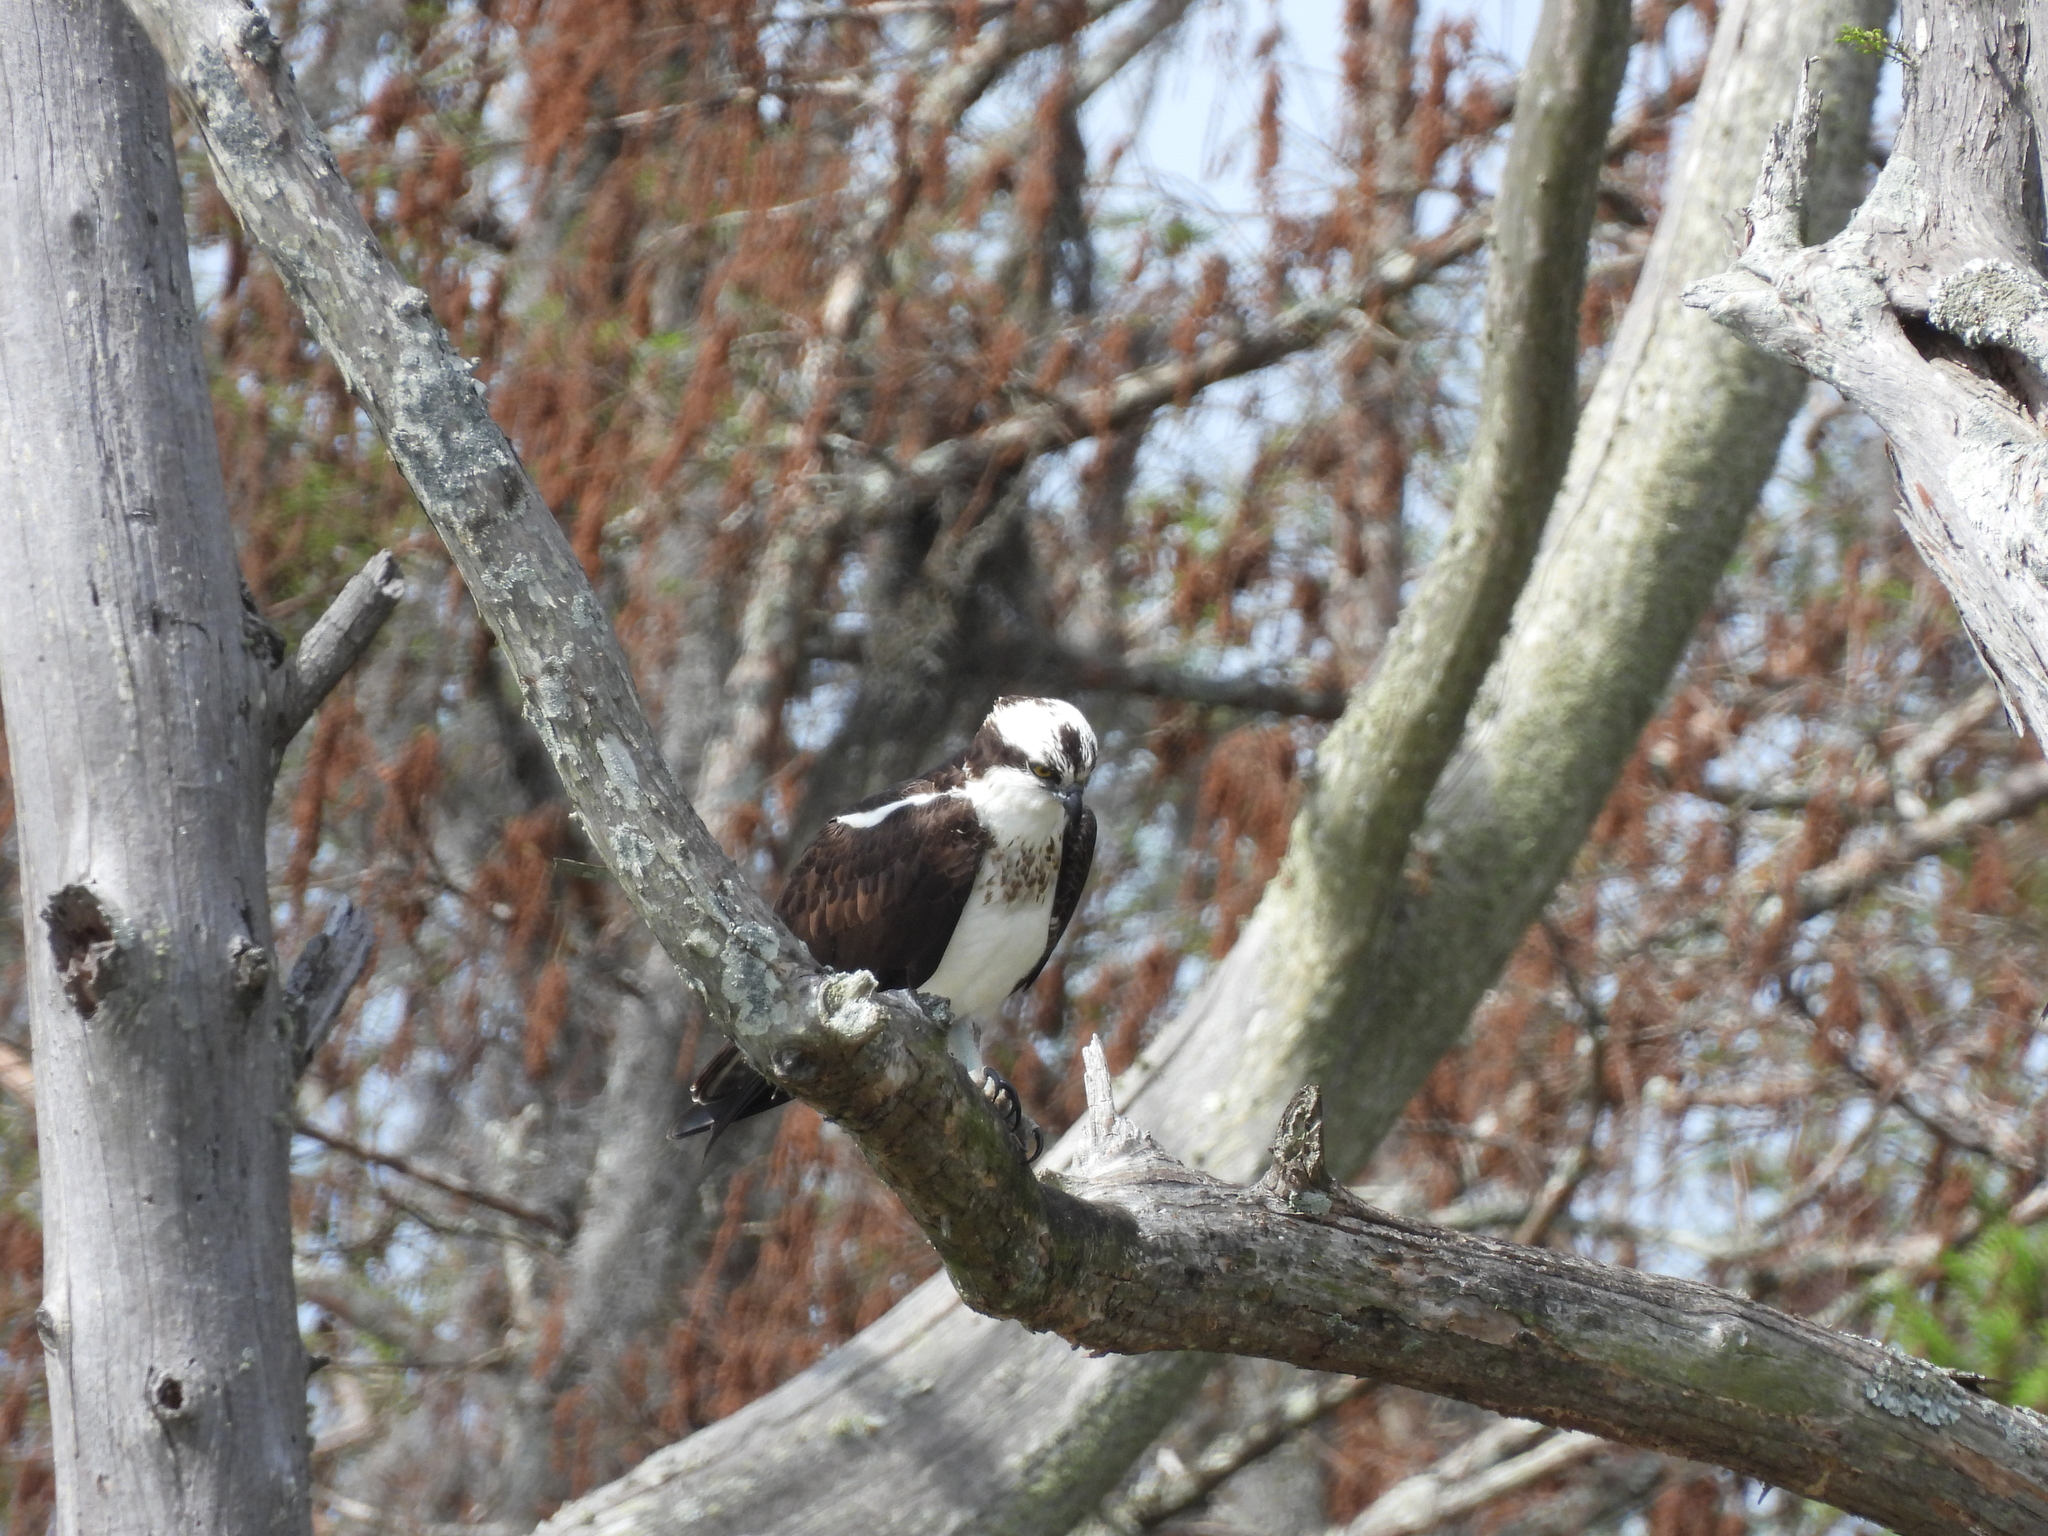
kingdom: Animalia
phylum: Chordata
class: Aves
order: Accipitriformes
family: Pandionidae
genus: Pandion
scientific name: Pandion haliaetus
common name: Osprey
